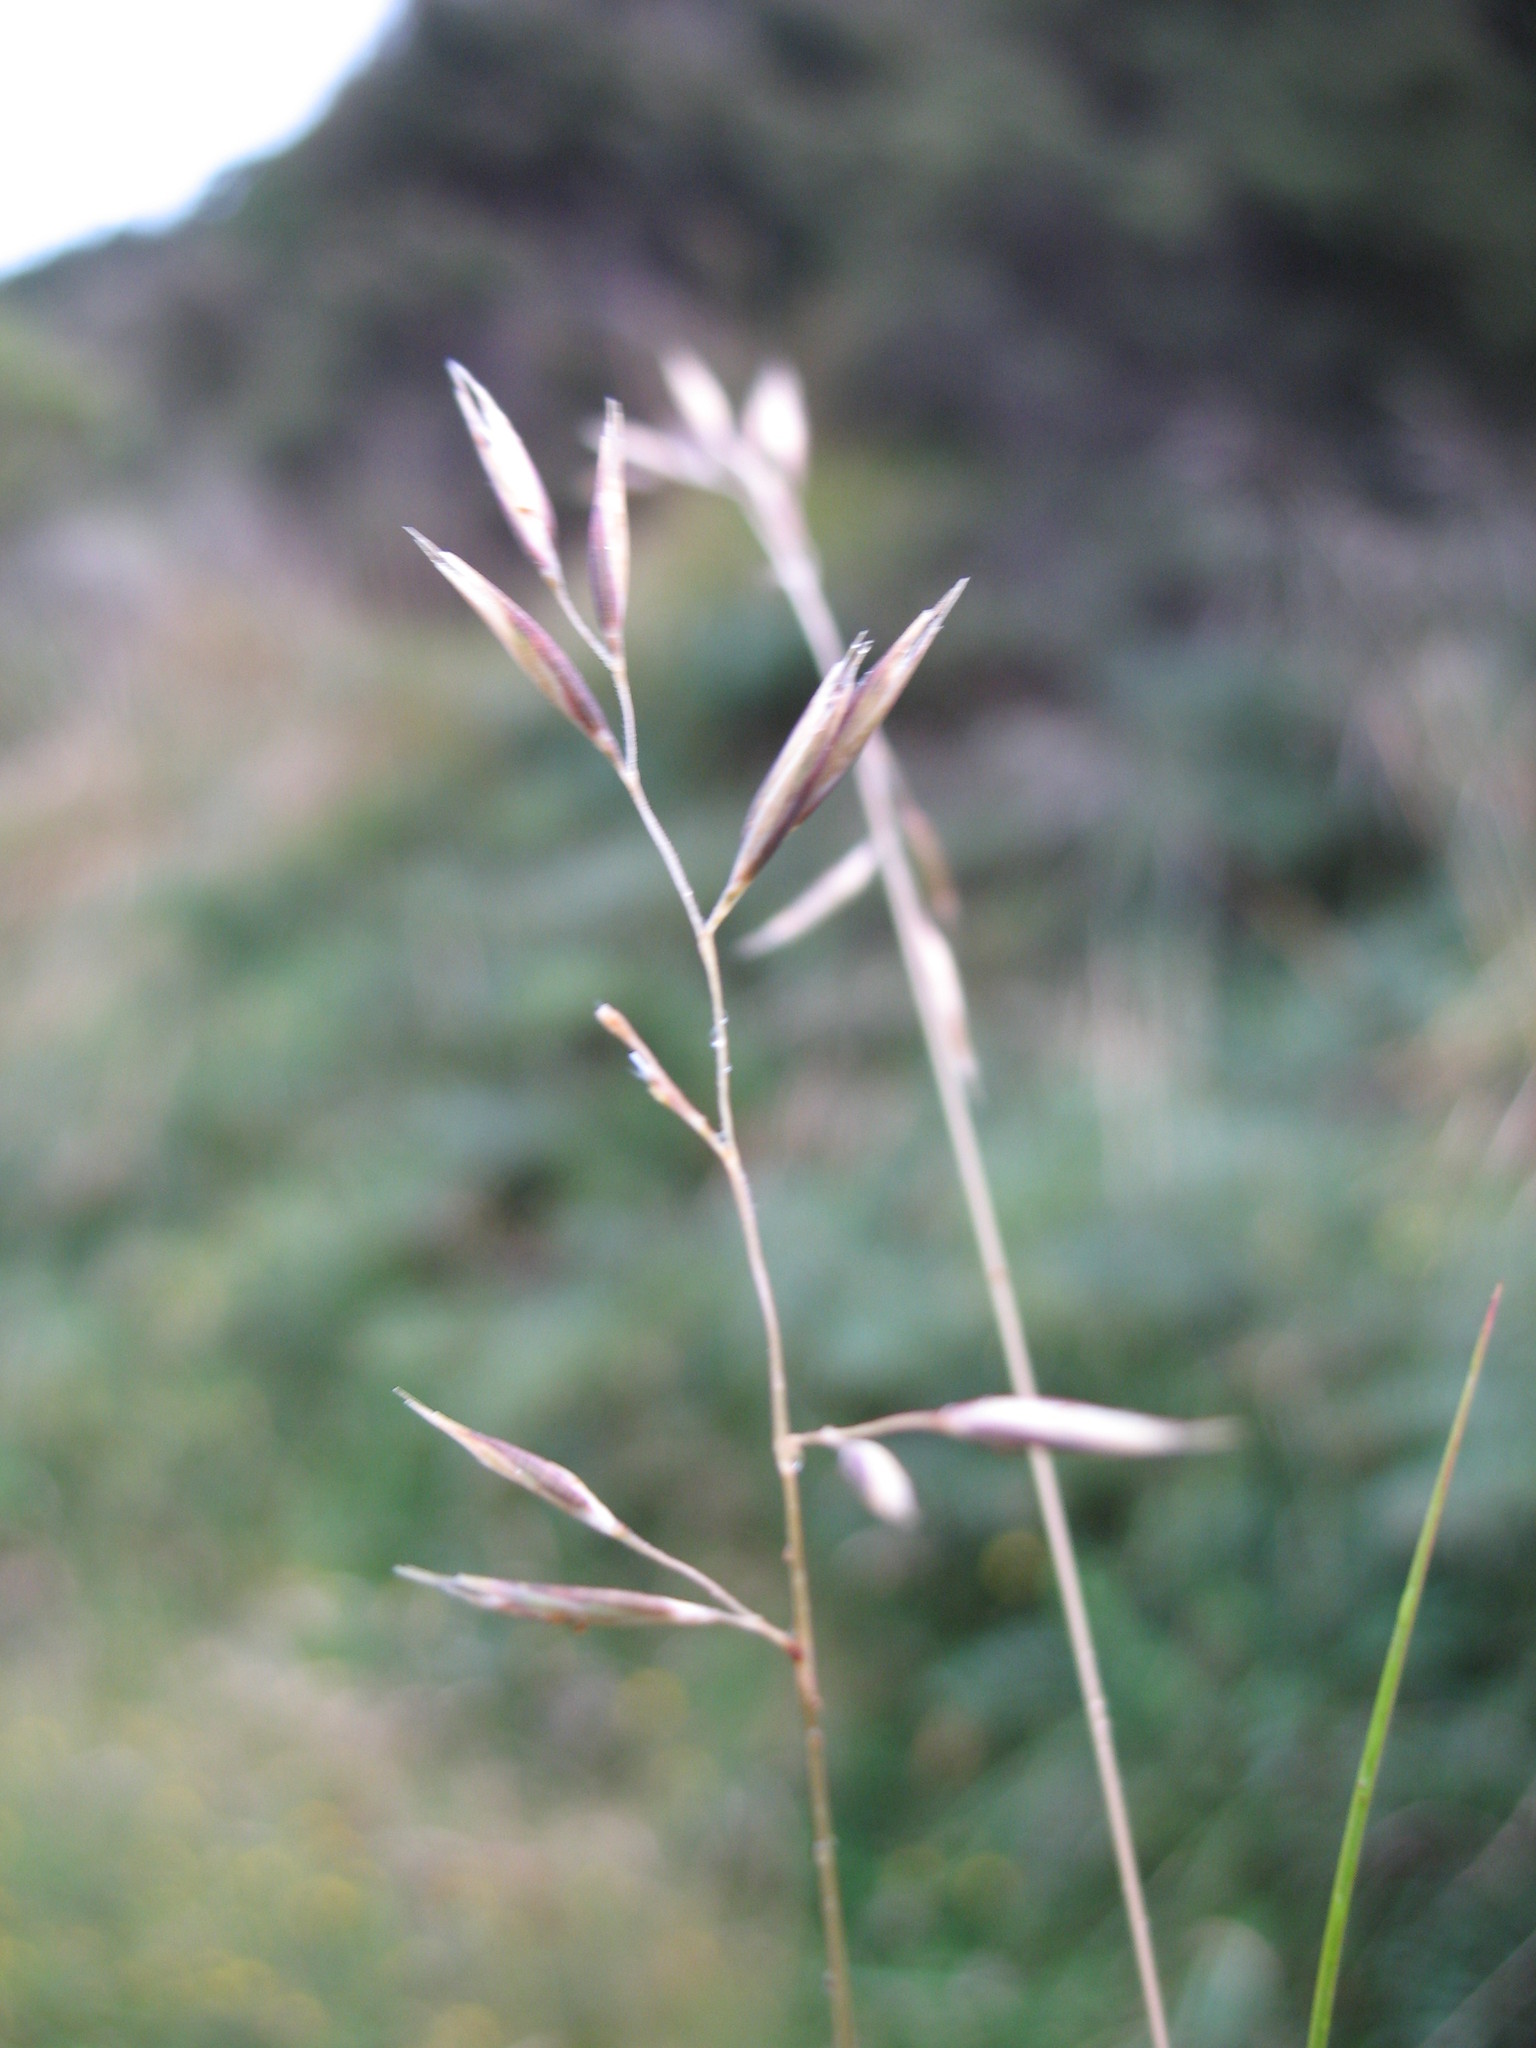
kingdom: Plantae
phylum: Tracheophyta
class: Liliopsida
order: Poales
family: Poaceae
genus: Rytidosperma
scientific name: Rytidosperma buchananii
